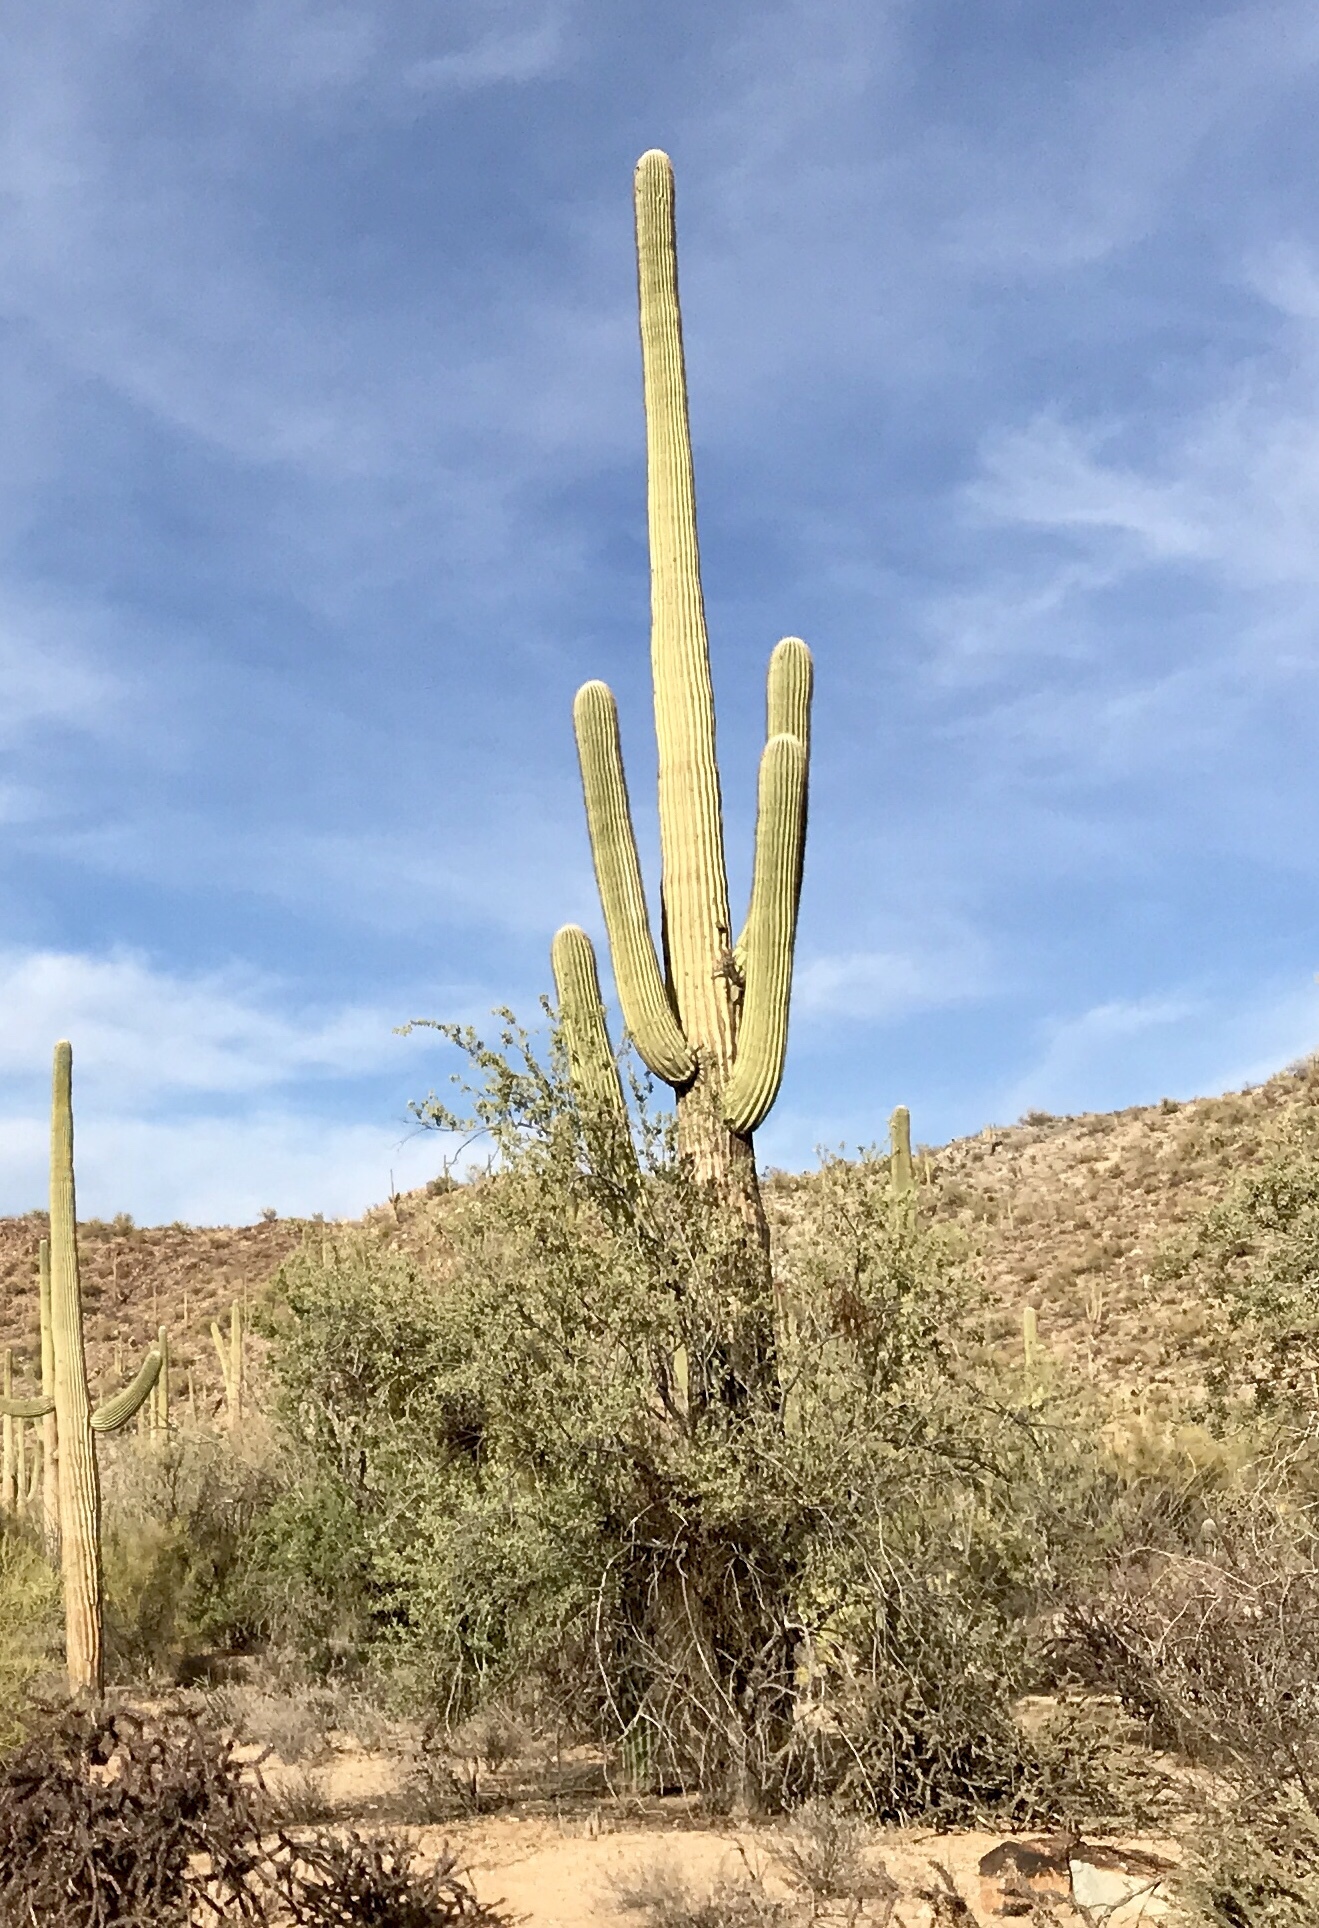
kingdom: Plantae
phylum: Tracheophyta
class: Magnoliopsida
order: Caryophyllales
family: Cactaceae
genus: Carnegiea
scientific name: Carnegiea gigantea
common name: Saguaro
